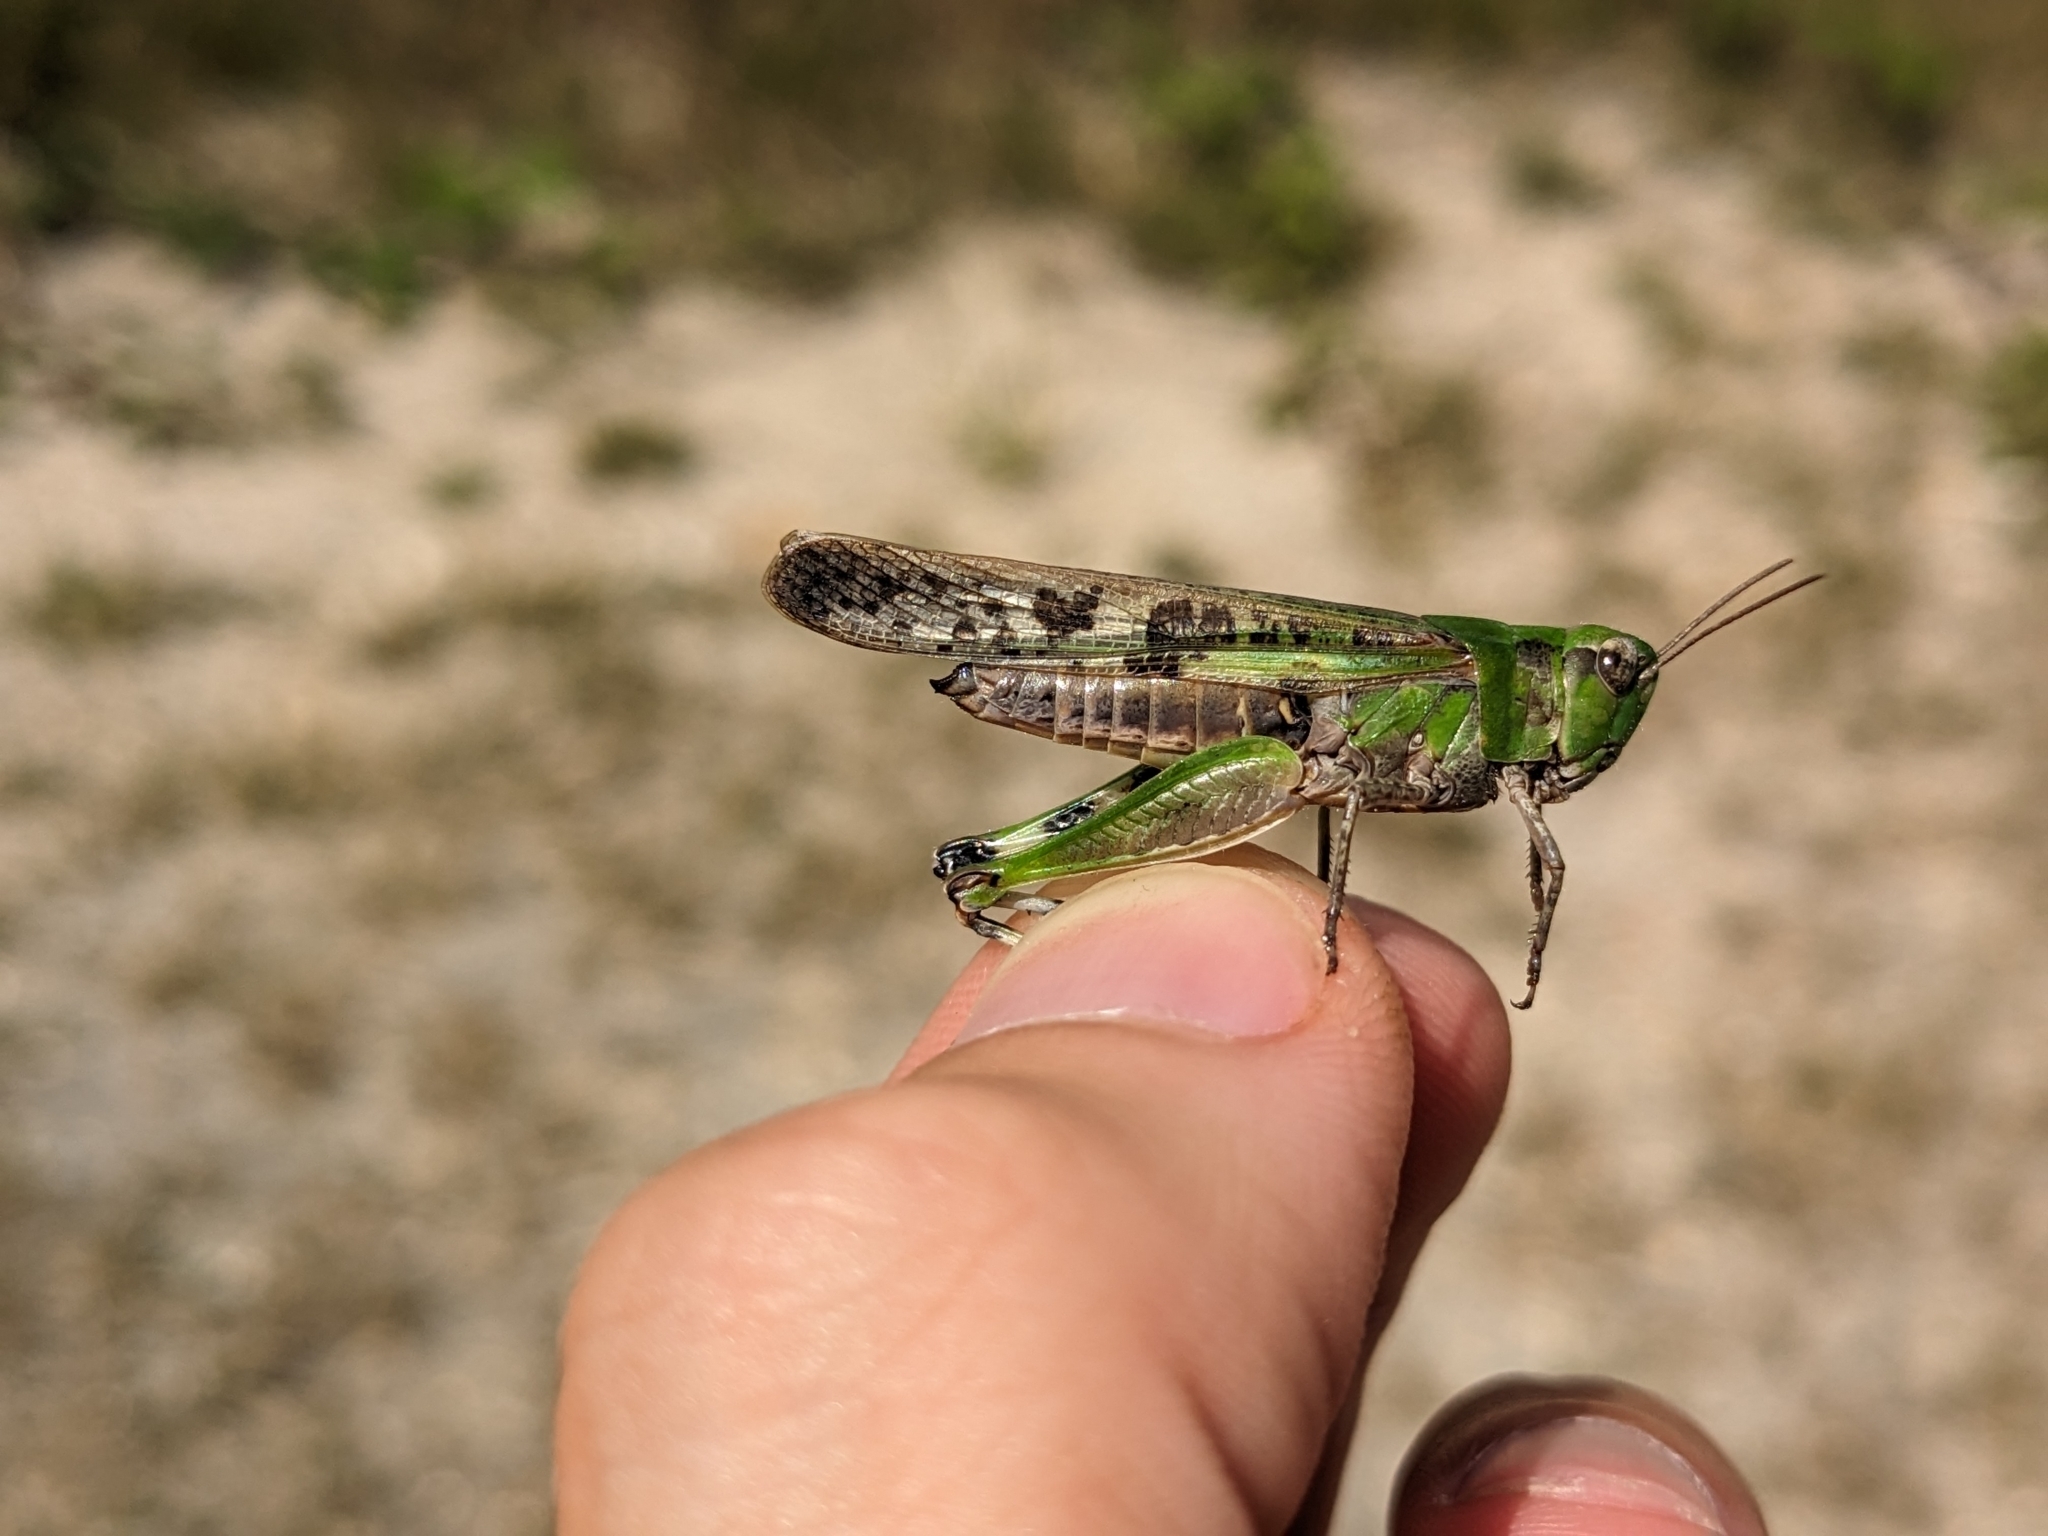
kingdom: Animalia
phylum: Arthropoda
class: Insecta
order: Orthoptera
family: Acrididae
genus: Aiolopus
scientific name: Aiolopus thalassinus
